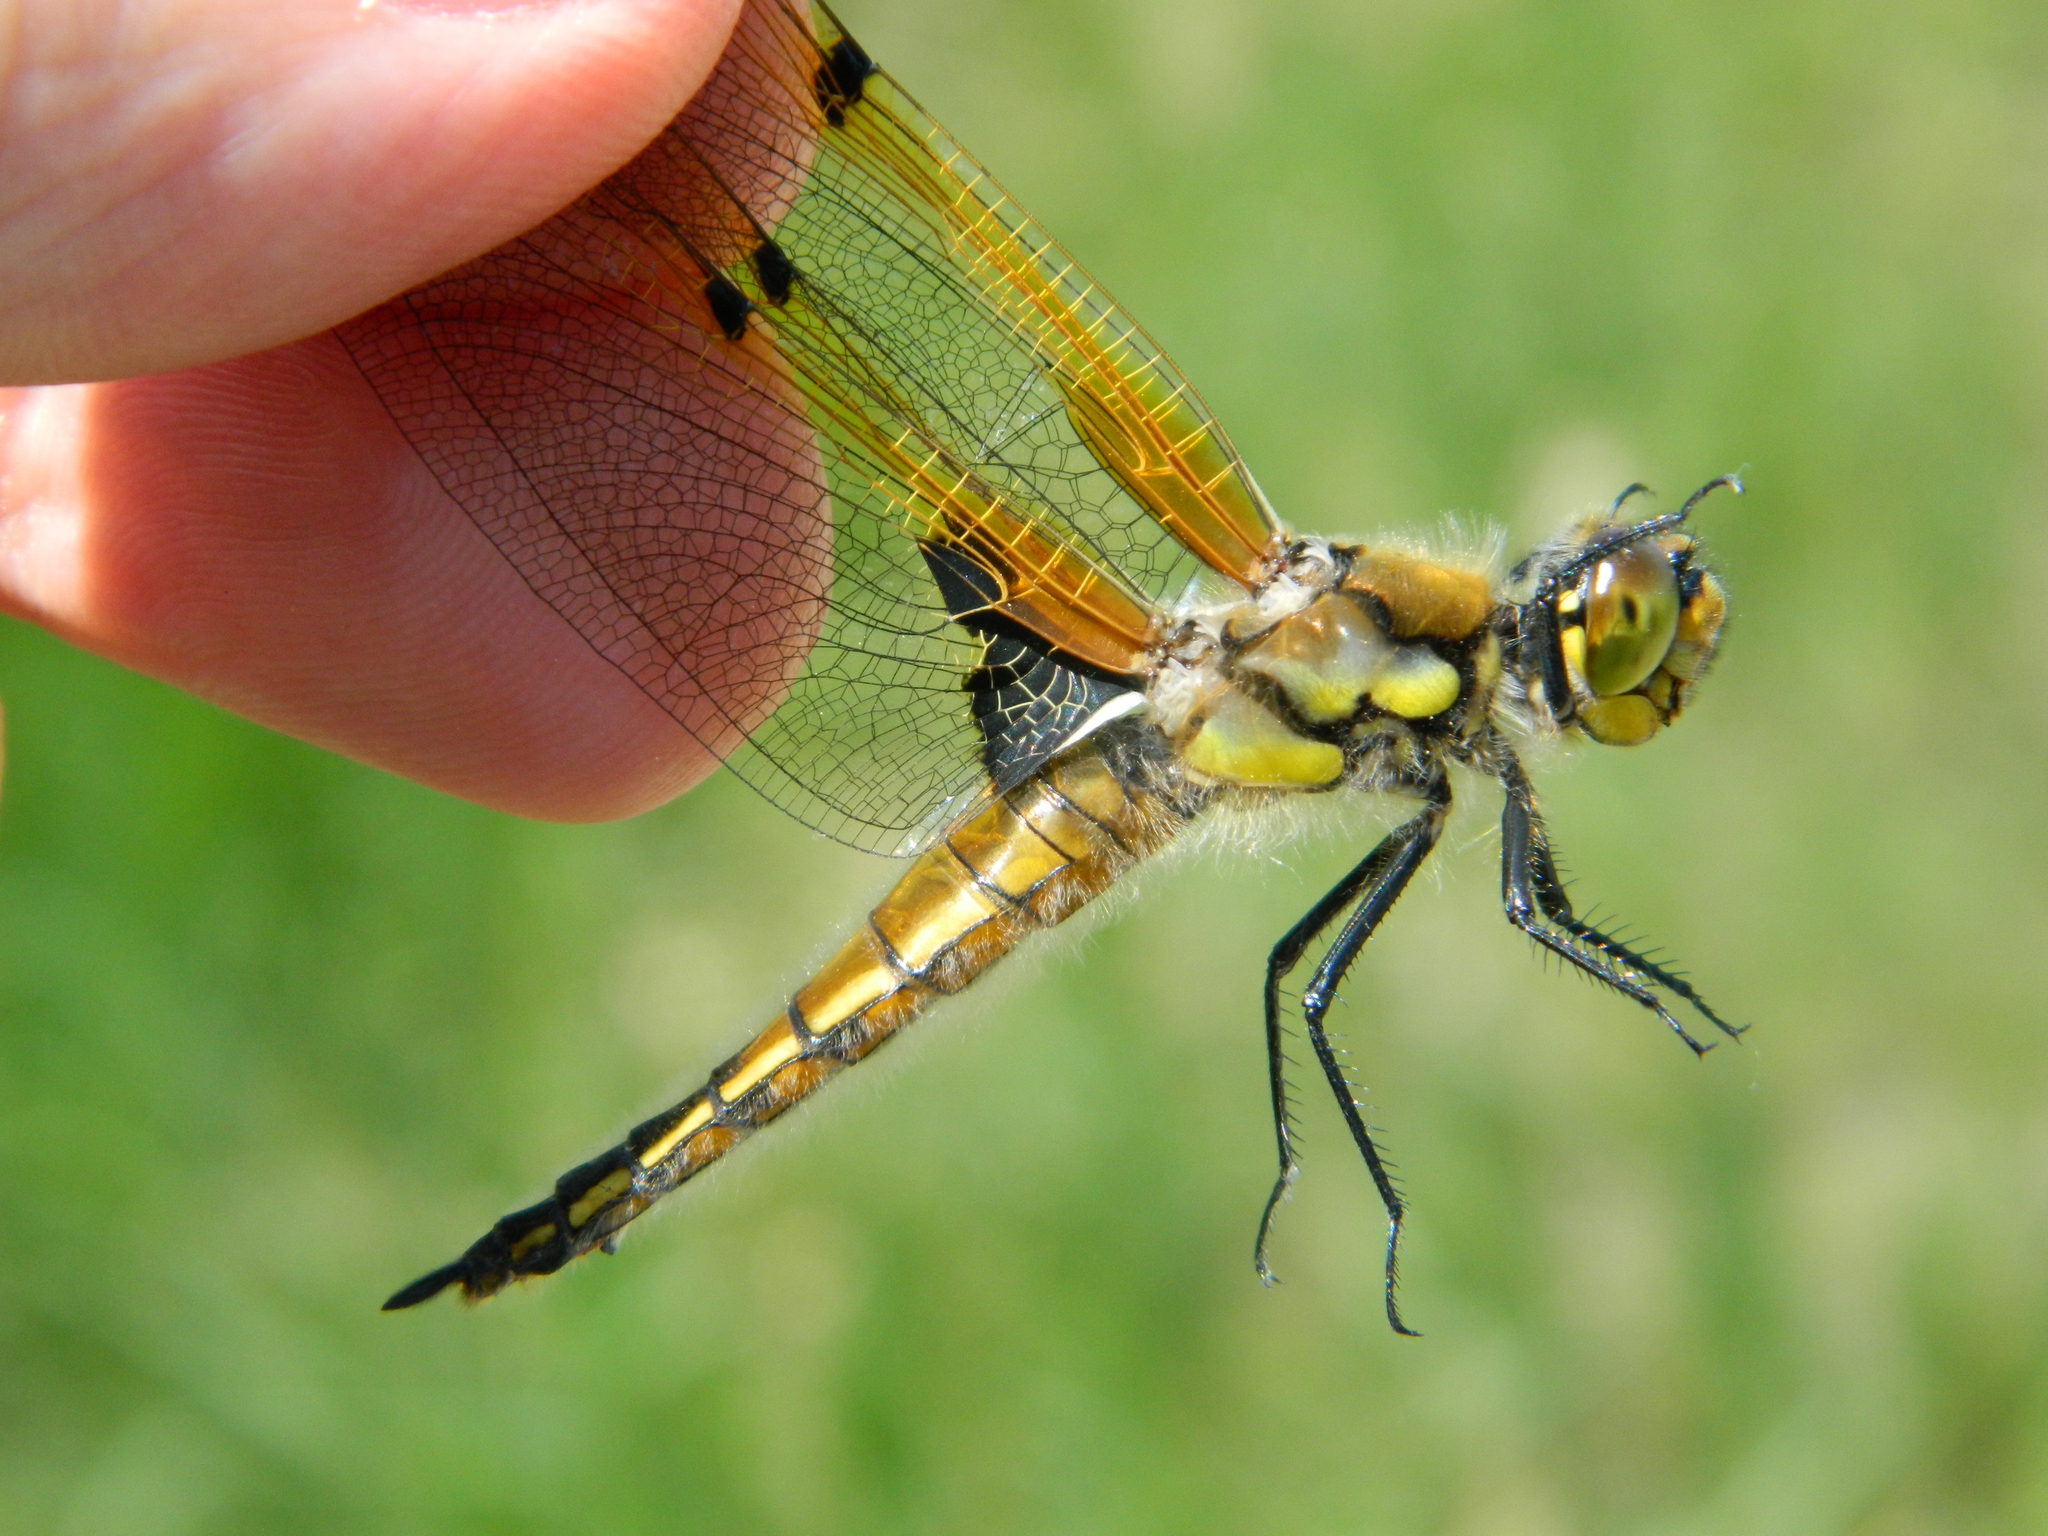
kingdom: Animalia
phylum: Arthropoda
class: Insecta
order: Odonata
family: Libellulidae
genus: Libellula
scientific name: Libellula quadrimaculata
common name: Four-spotted chaser
